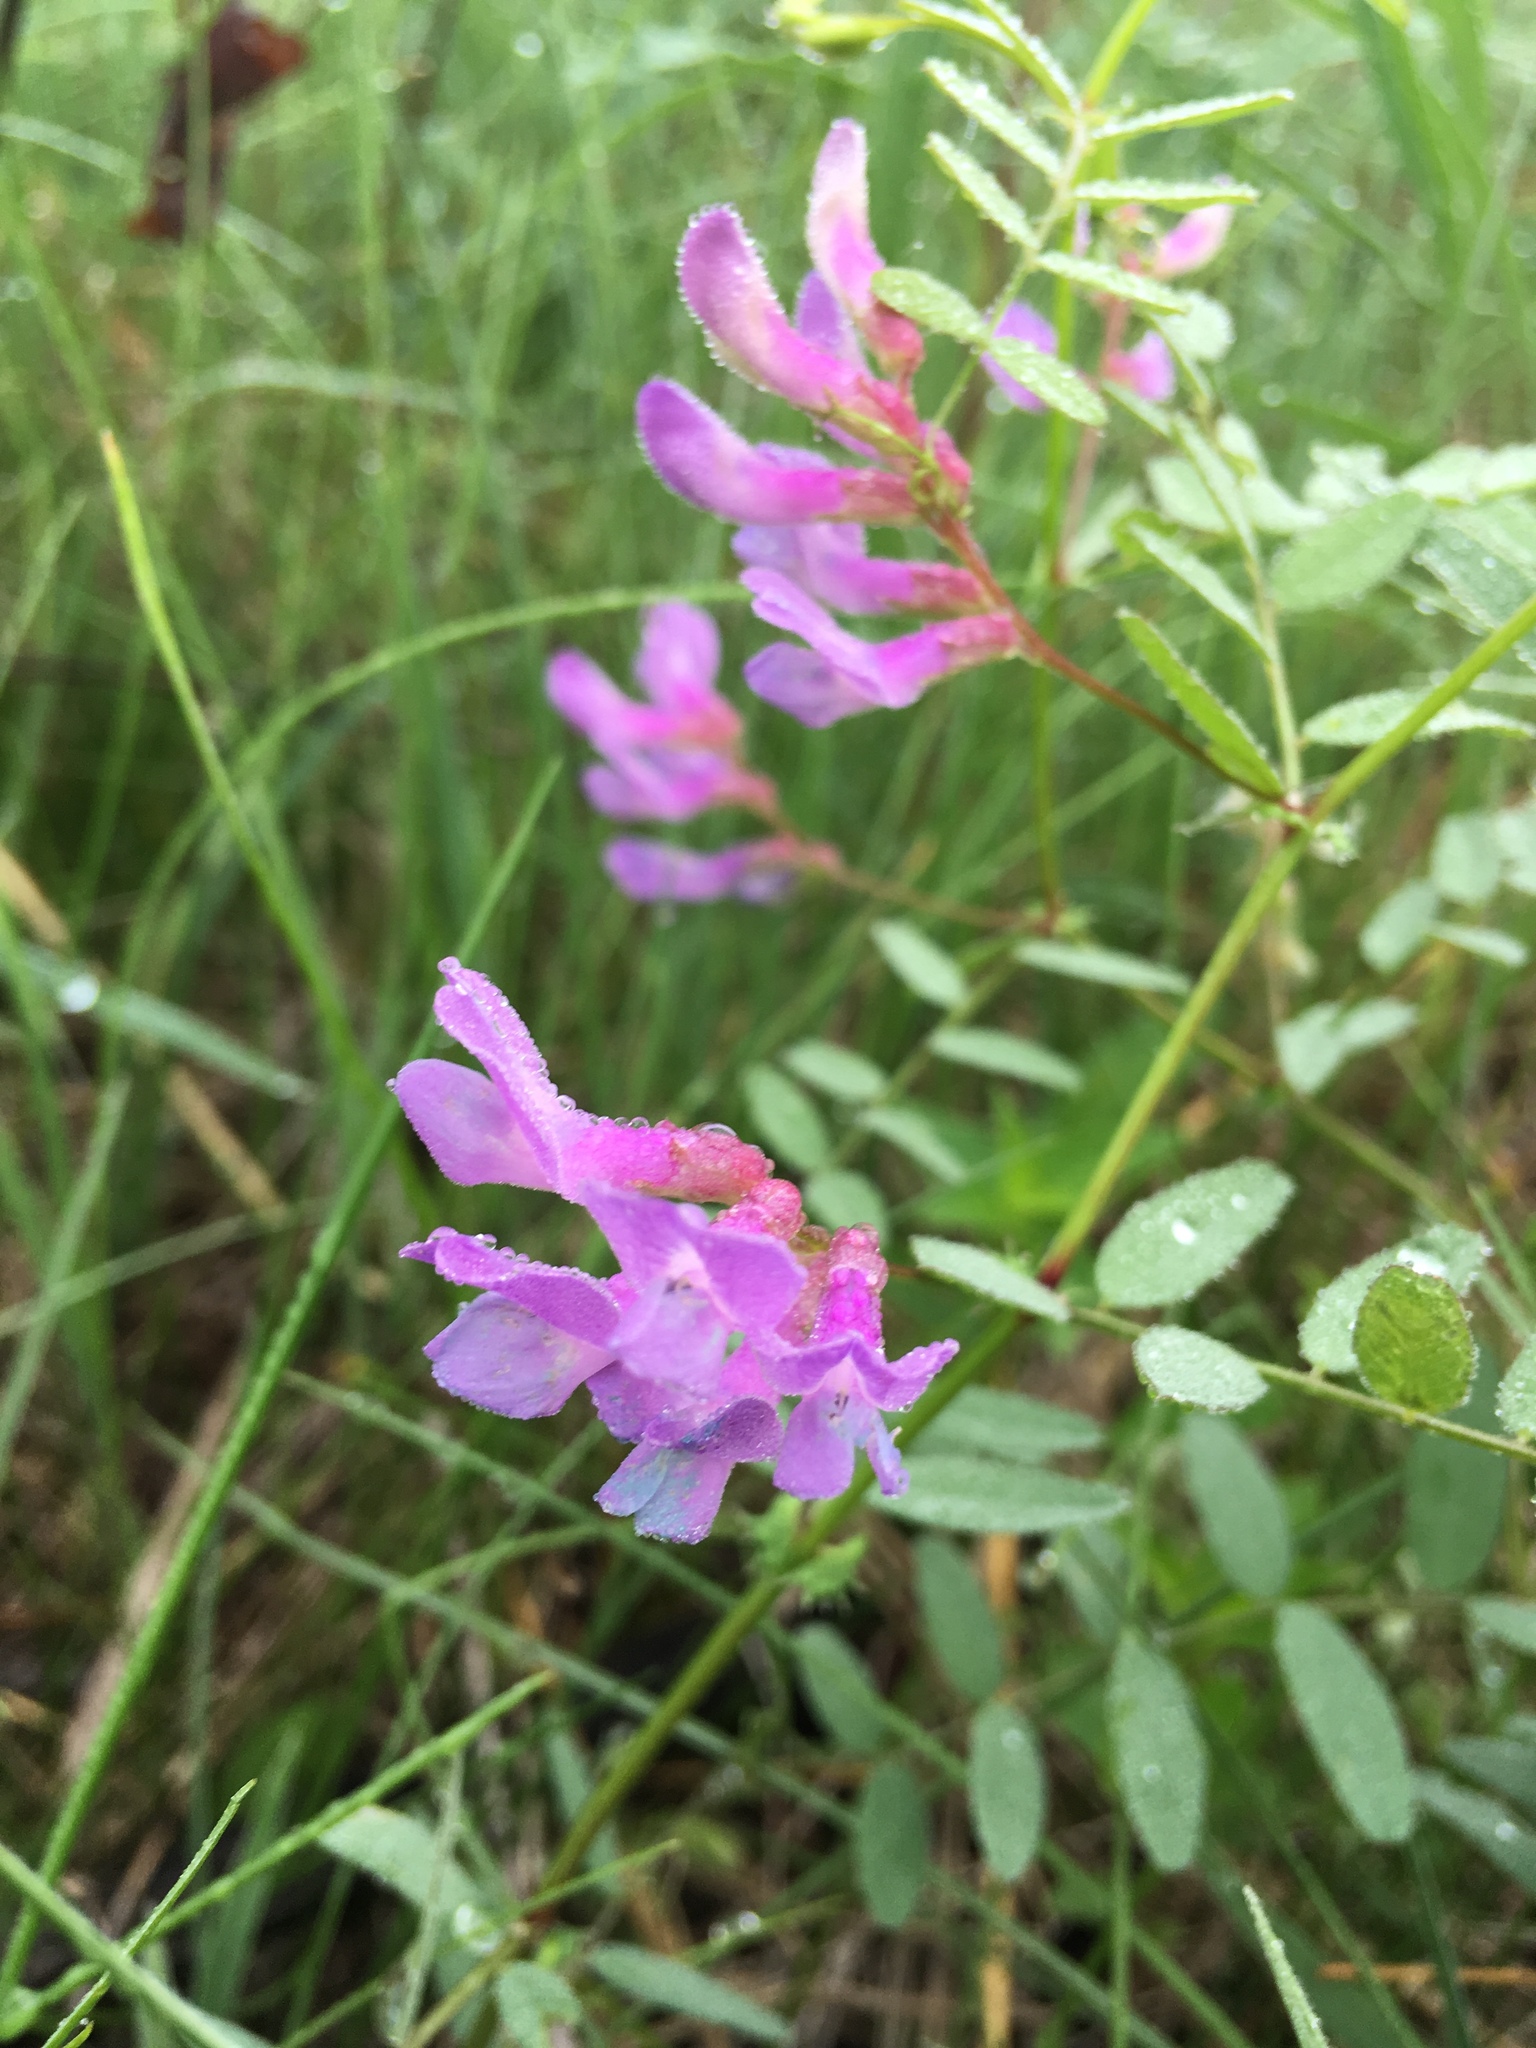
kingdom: Plantae
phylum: Tracheophyta
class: Magnoliopsida
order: Fabales
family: Fabaceae
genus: Vicia
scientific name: Vicia americana
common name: American vetch
